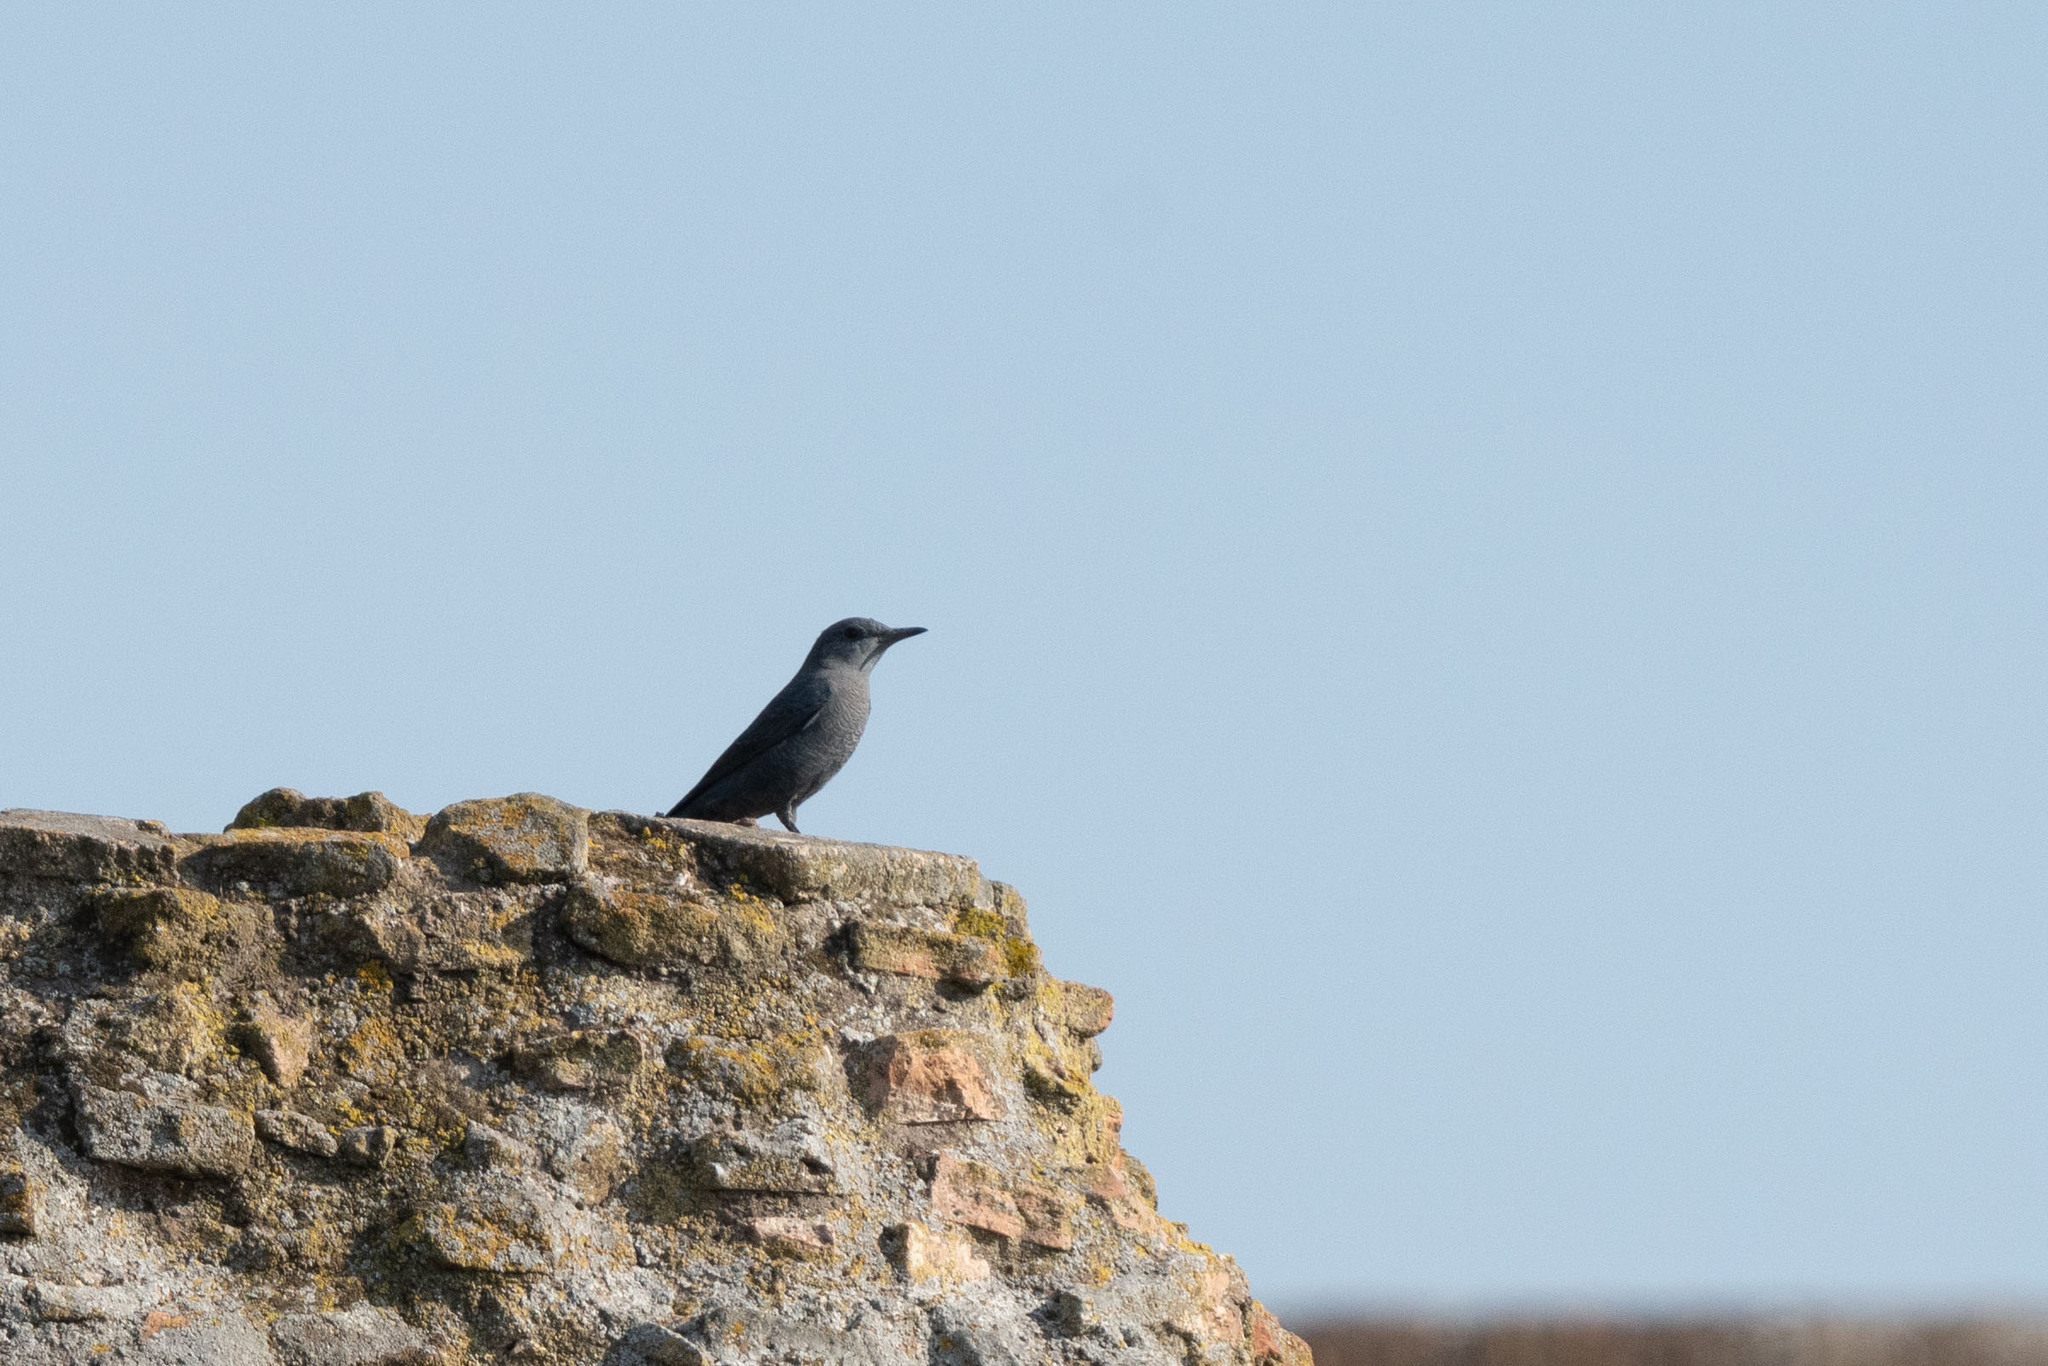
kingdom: Animalia
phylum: Chordata
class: Aves
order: Passeriformes
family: Muscicapidae
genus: Monticola
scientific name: Monticola solitarius
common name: Blue rock thrush
